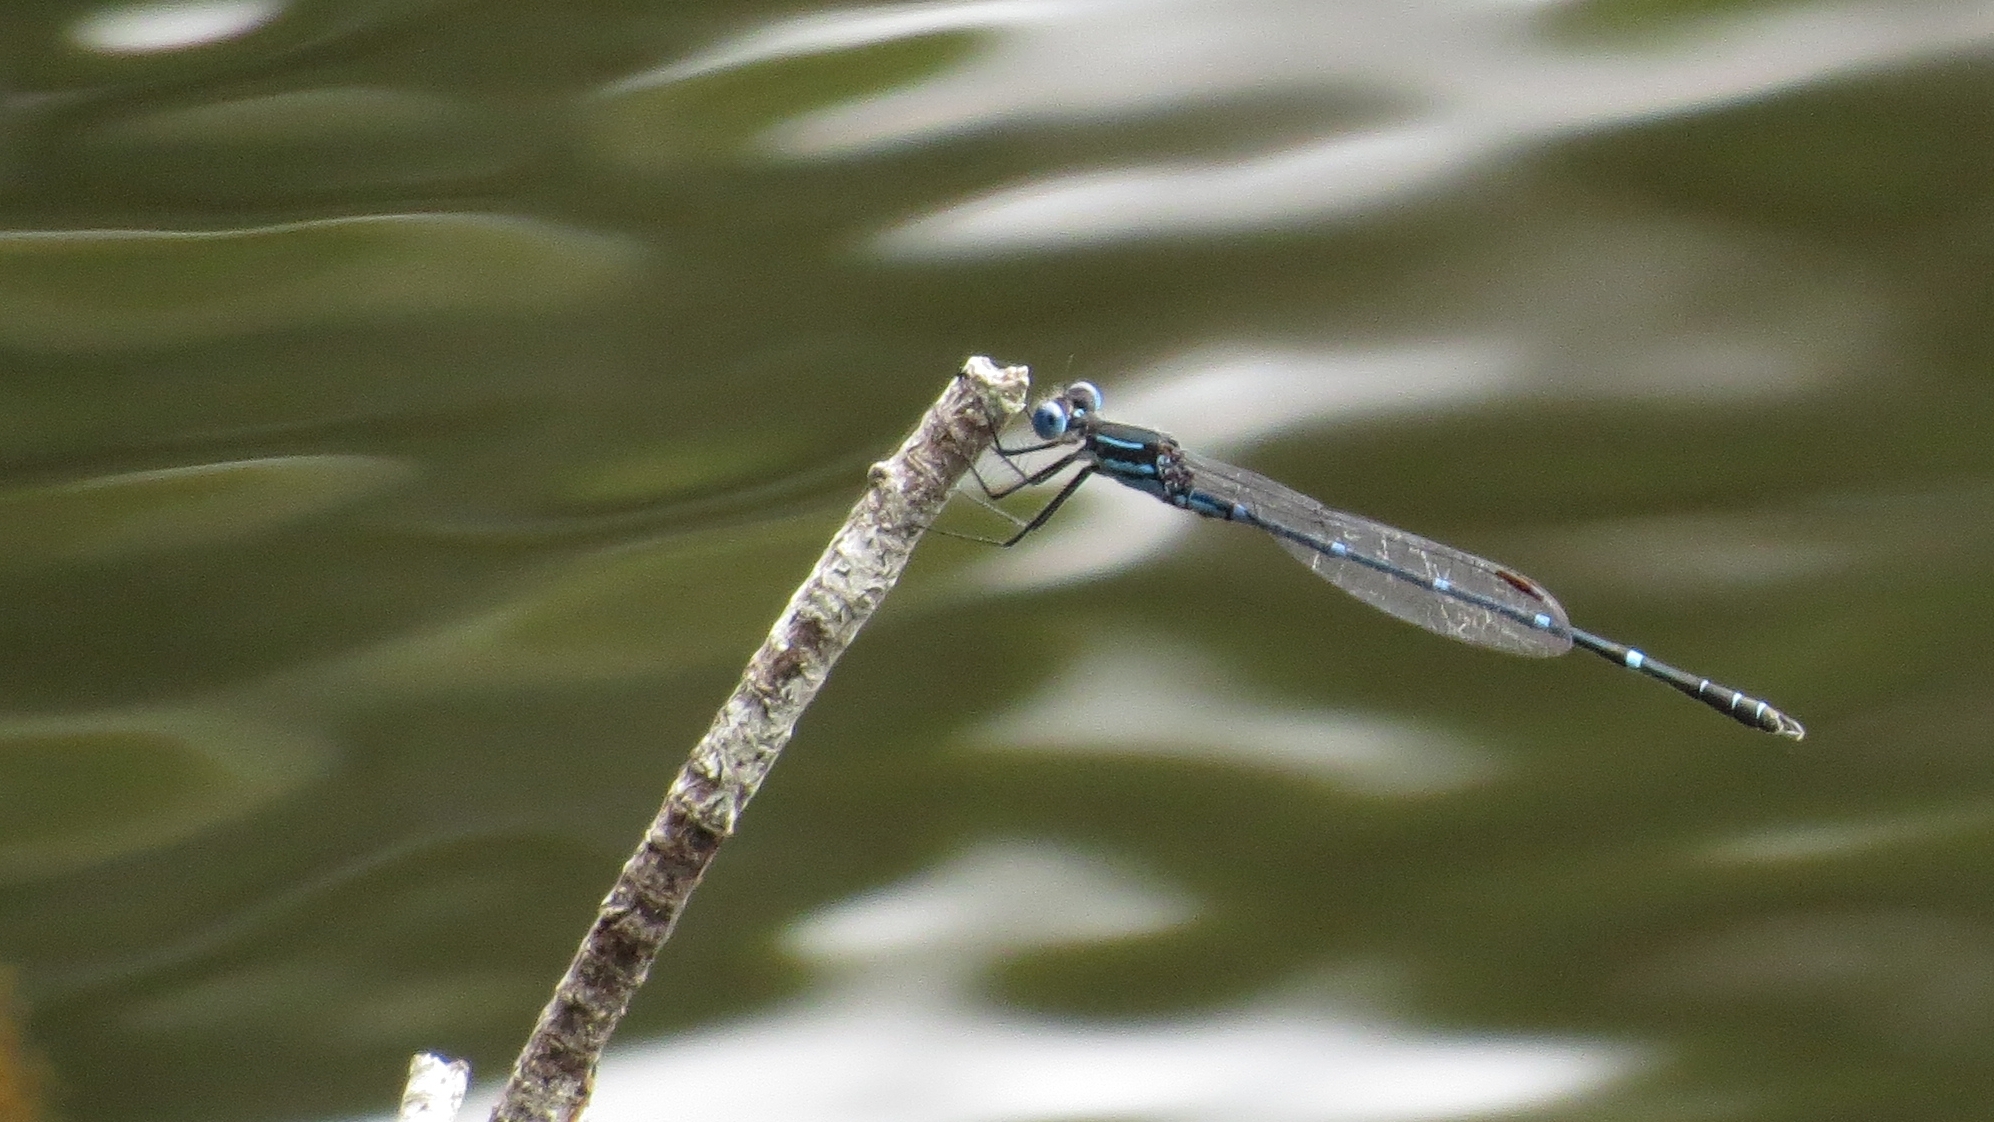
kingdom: Animalia
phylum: Arthropoda
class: Insecta
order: Odonata
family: Lestidae
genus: Austrolestes
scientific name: Austrolestes minjerriba
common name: Dune ringtail
